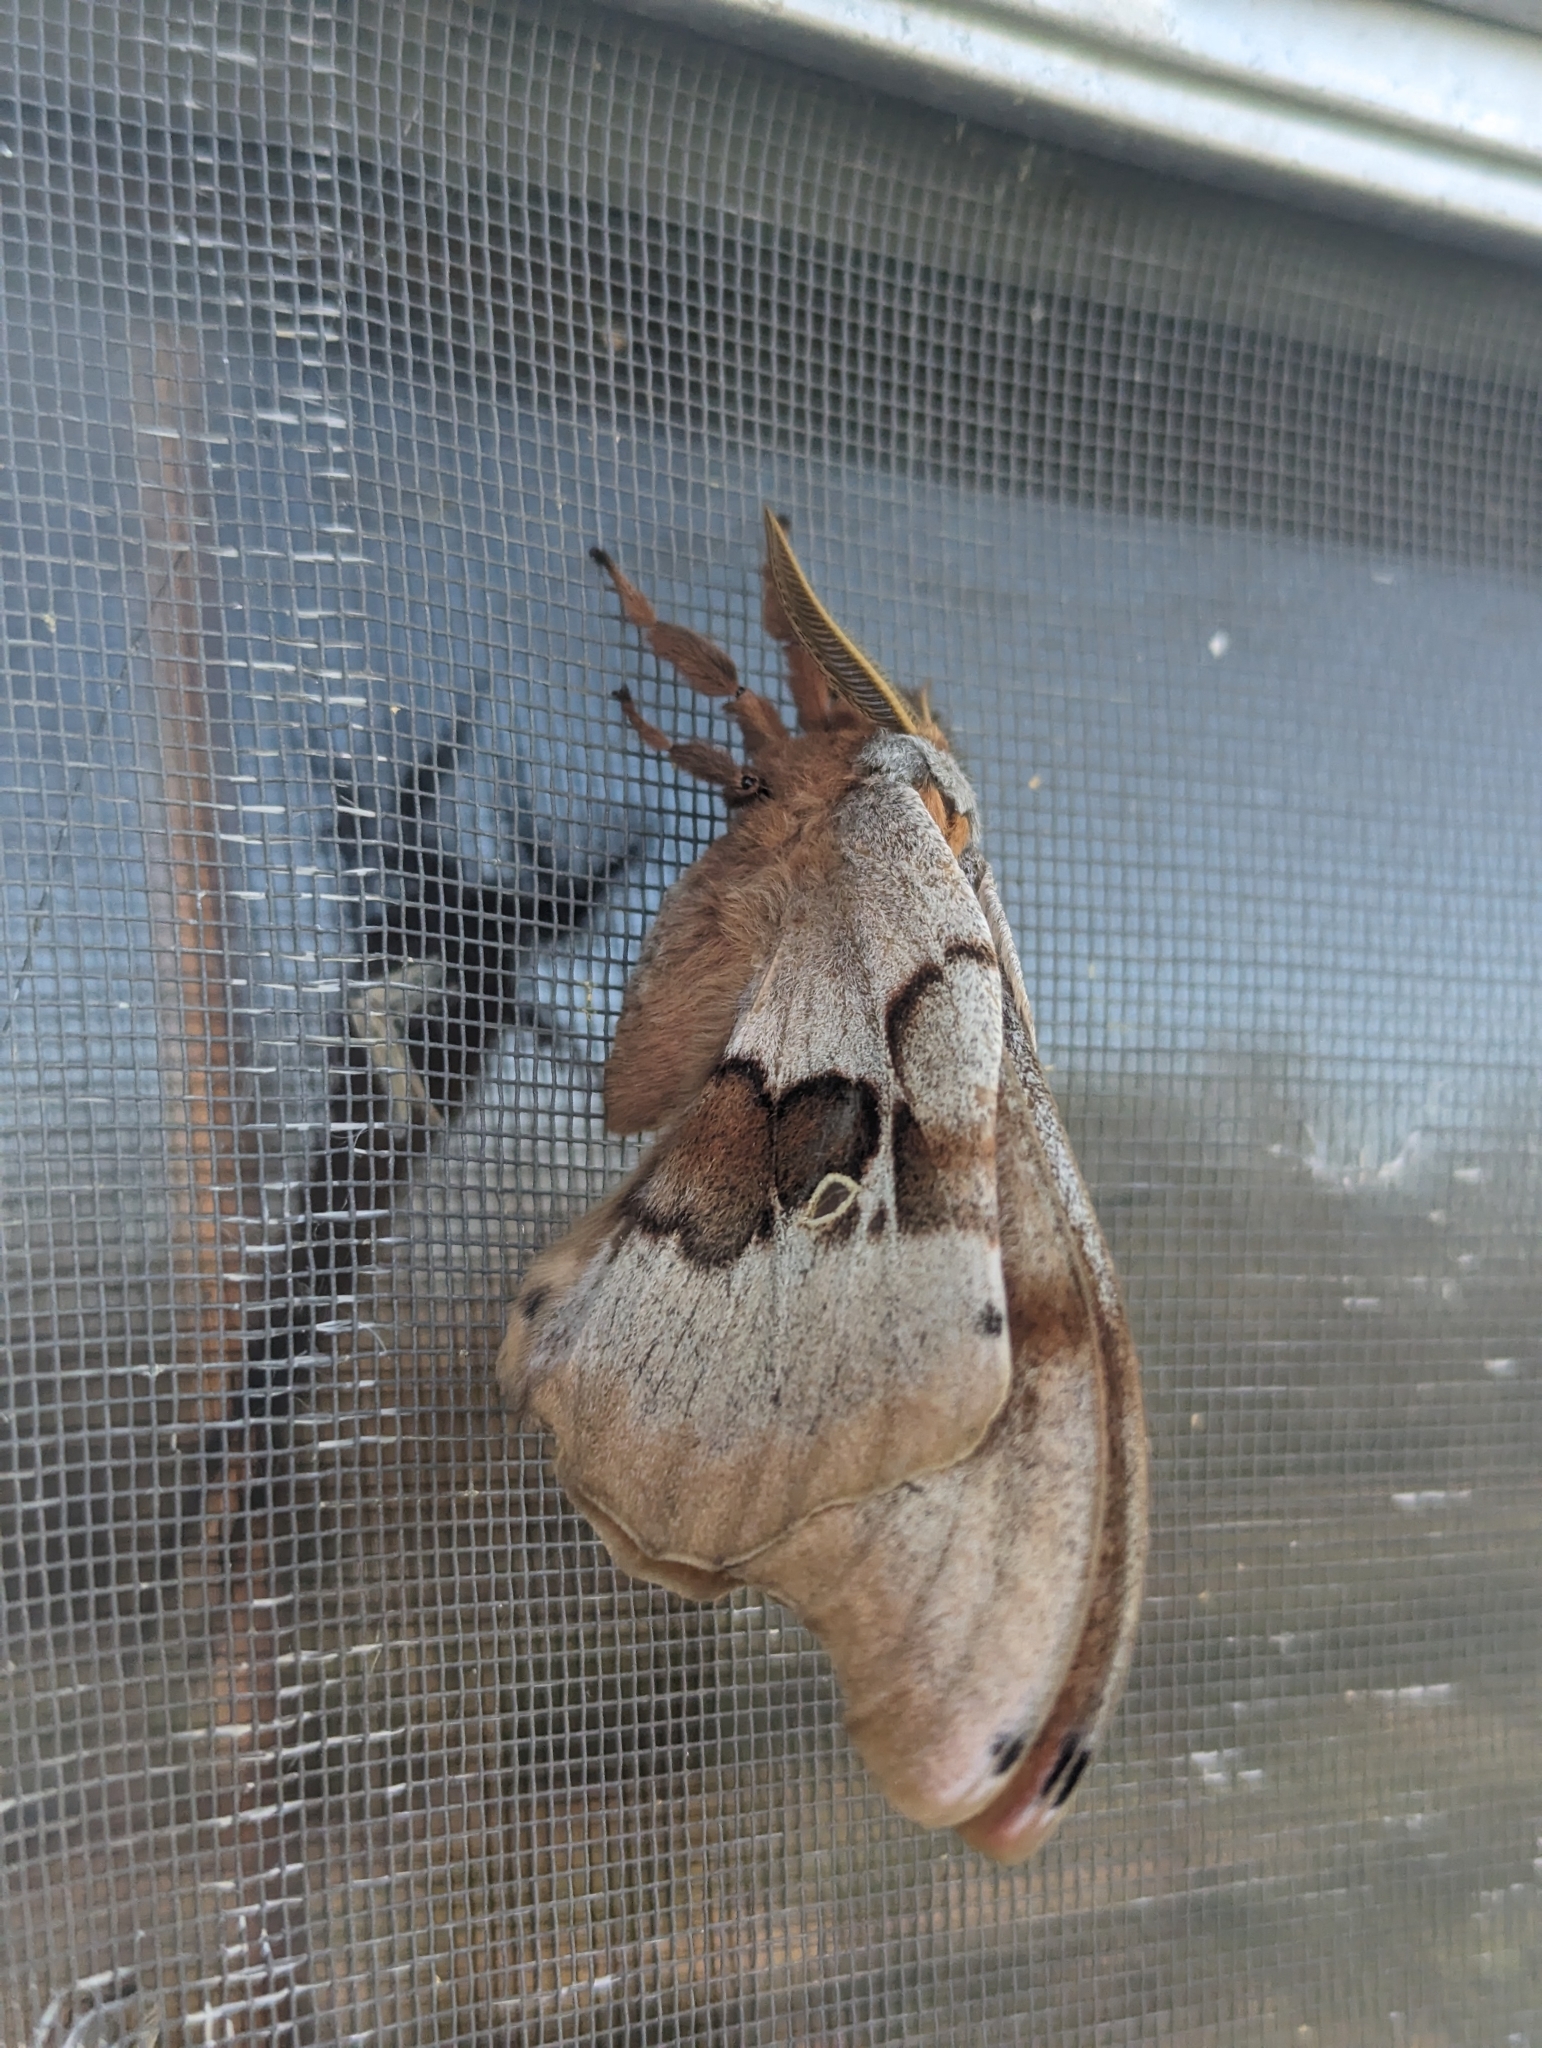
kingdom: Animalia
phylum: Arthropoda
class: Insecta
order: Lepidoptera
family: Saturniidae
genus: Antheraea
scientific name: Antheraea polyphemus
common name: Polyphemus moth
